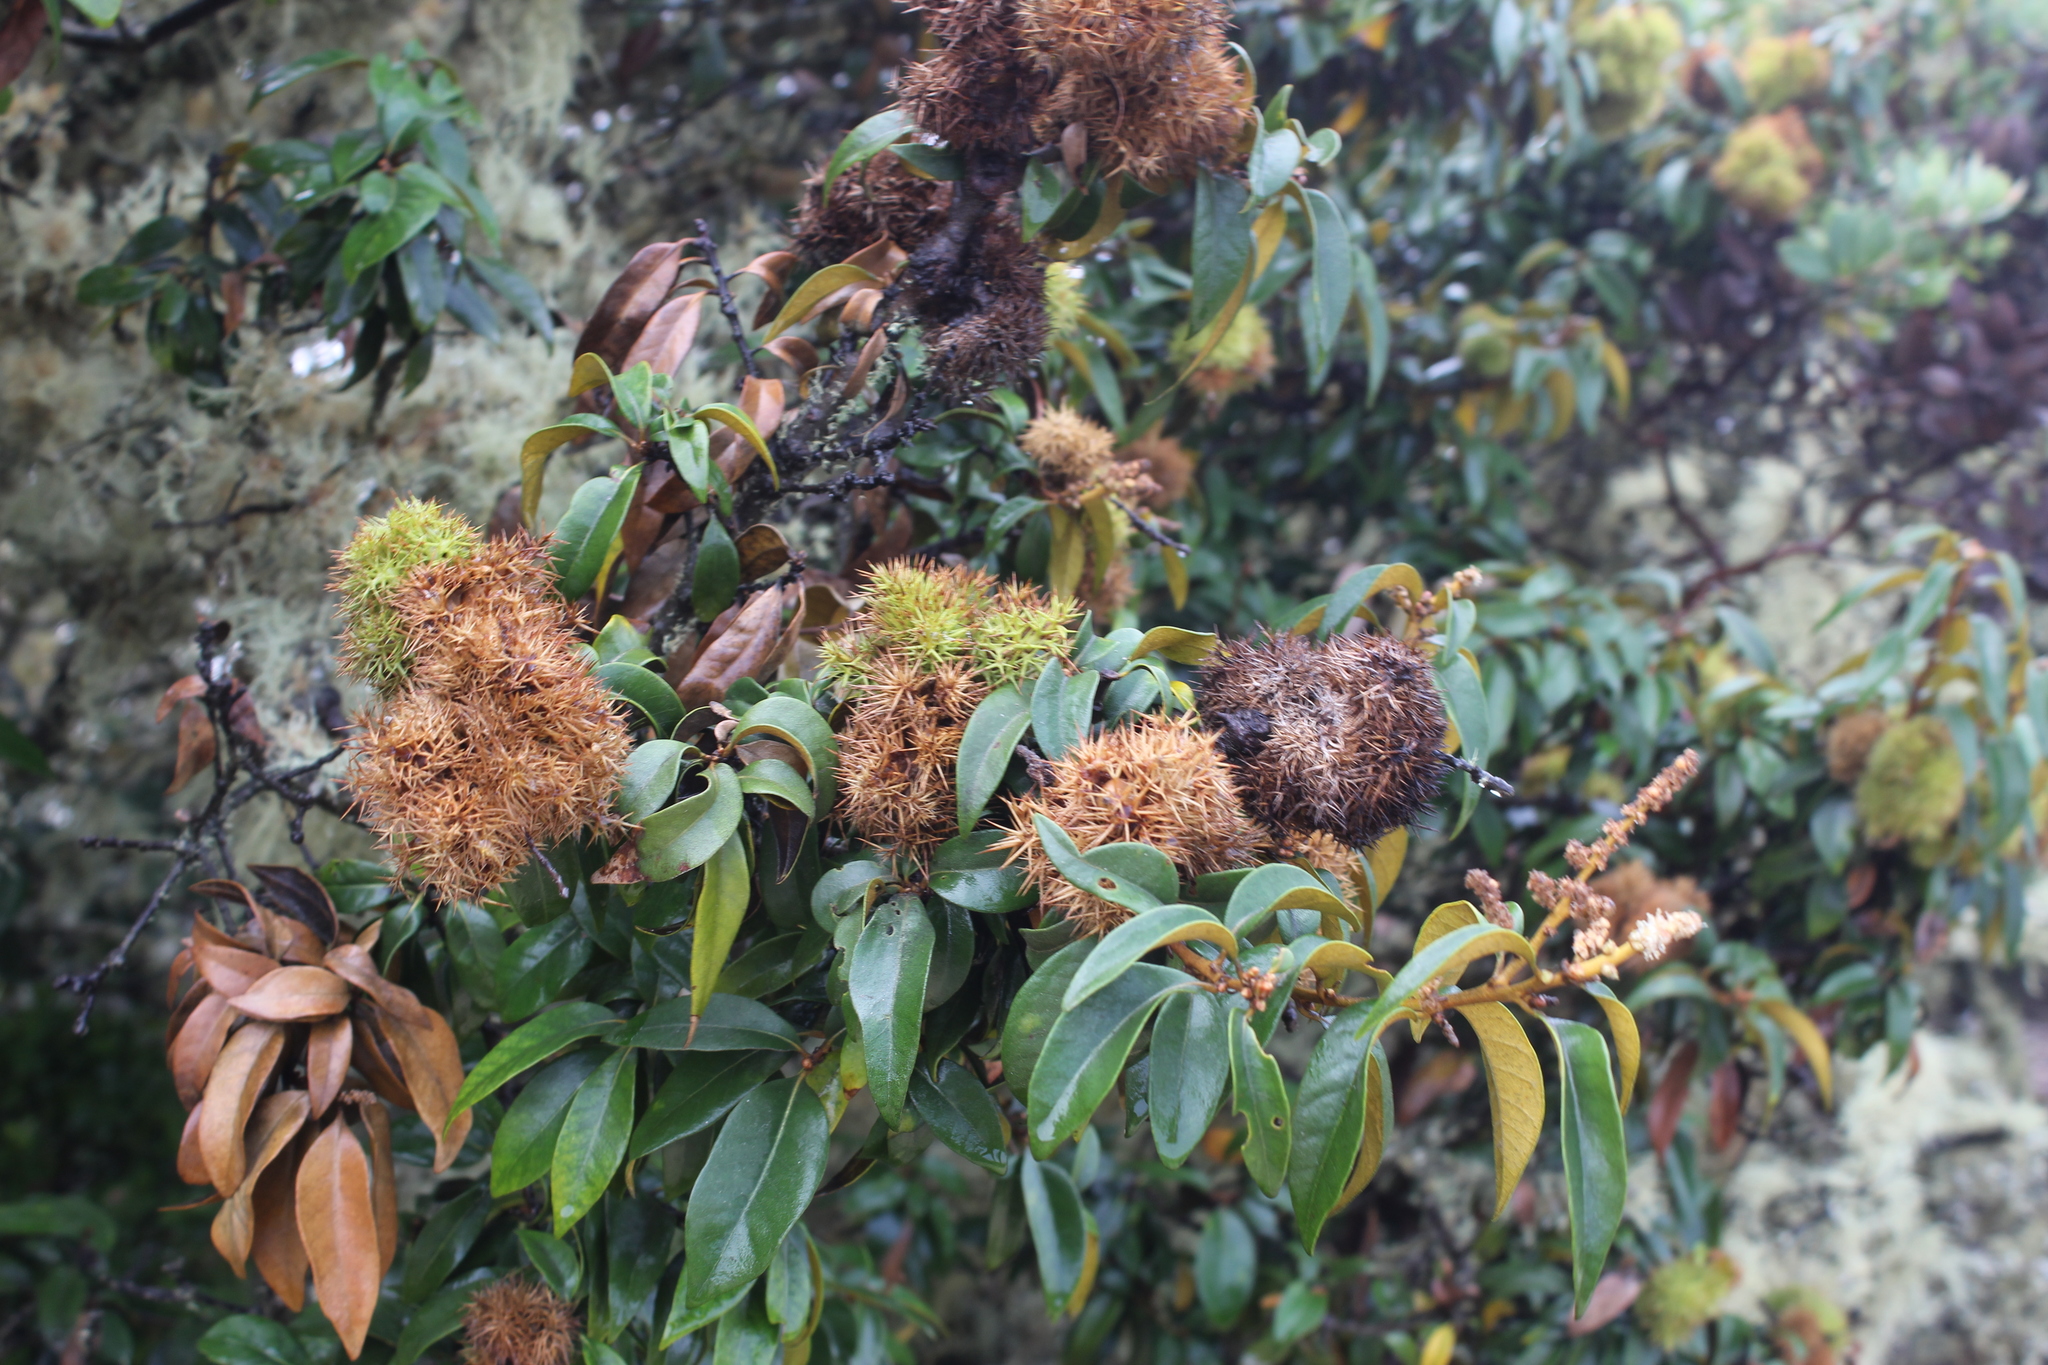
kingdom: Plantae
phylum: Tracheophyta
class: Magnoliopsida
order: Fagales
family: Fagaceae
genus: Chrysolepis
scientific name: Chrysolepis chrysophylla
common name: Giant chinquapin
